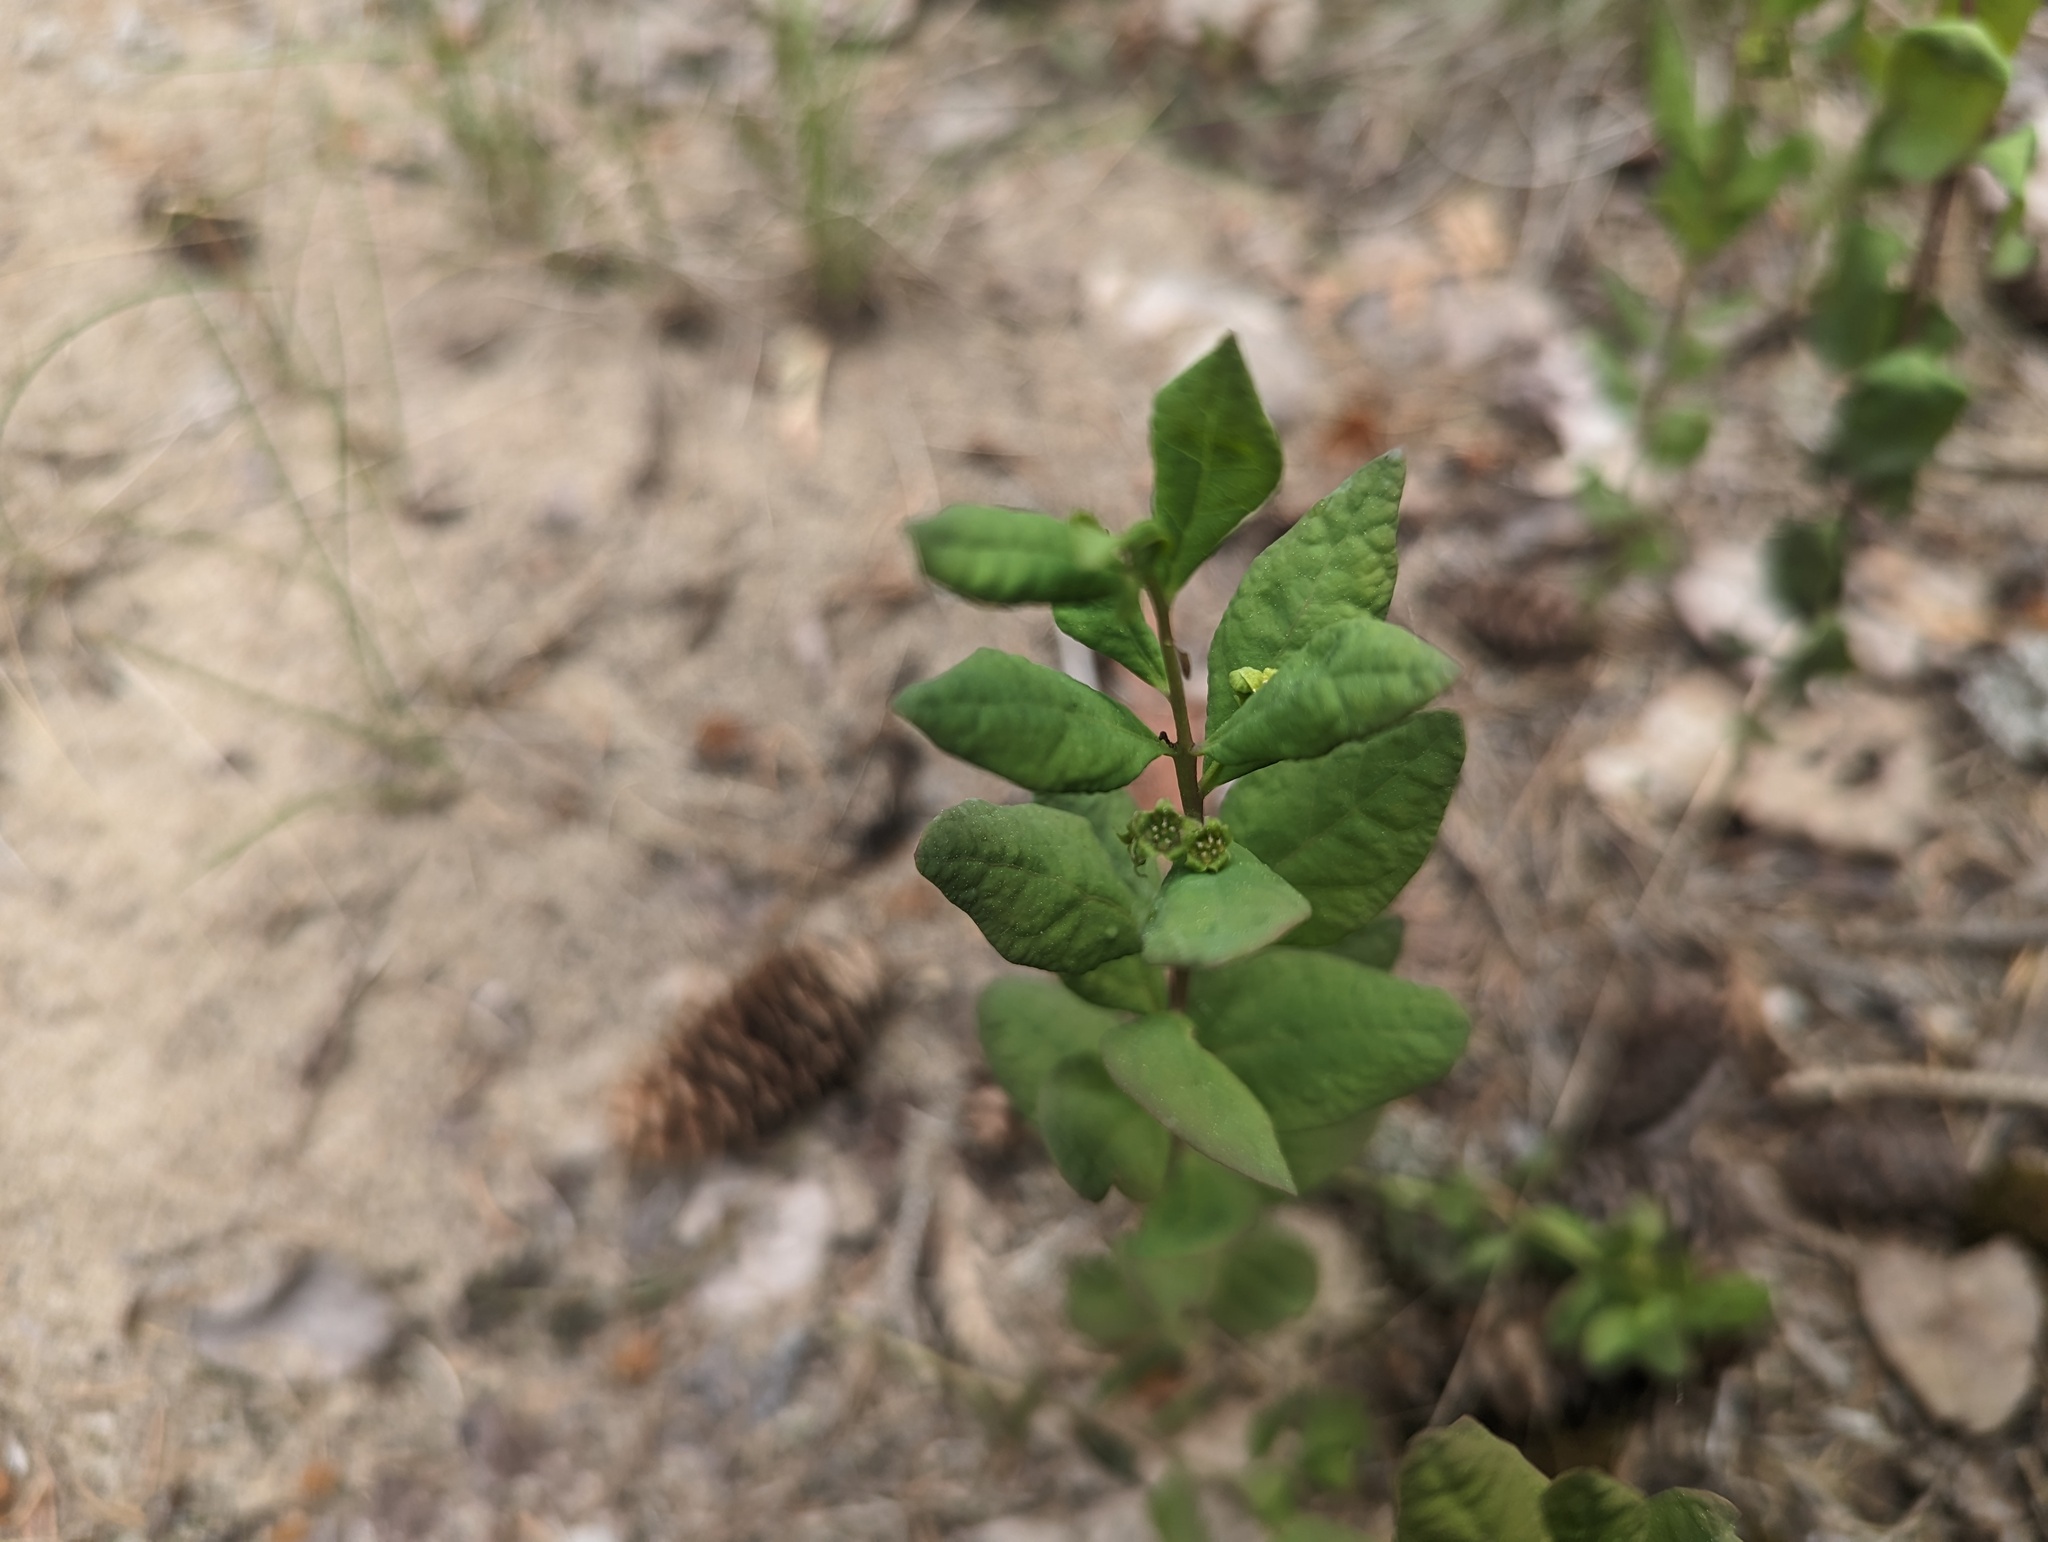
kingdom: Plantae
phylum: Tracheophyta
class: Magnoliopsida
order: Santalales
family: Comandraceae
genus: Geocaulon
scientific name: Geocaulon lividum
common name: Earthberry
